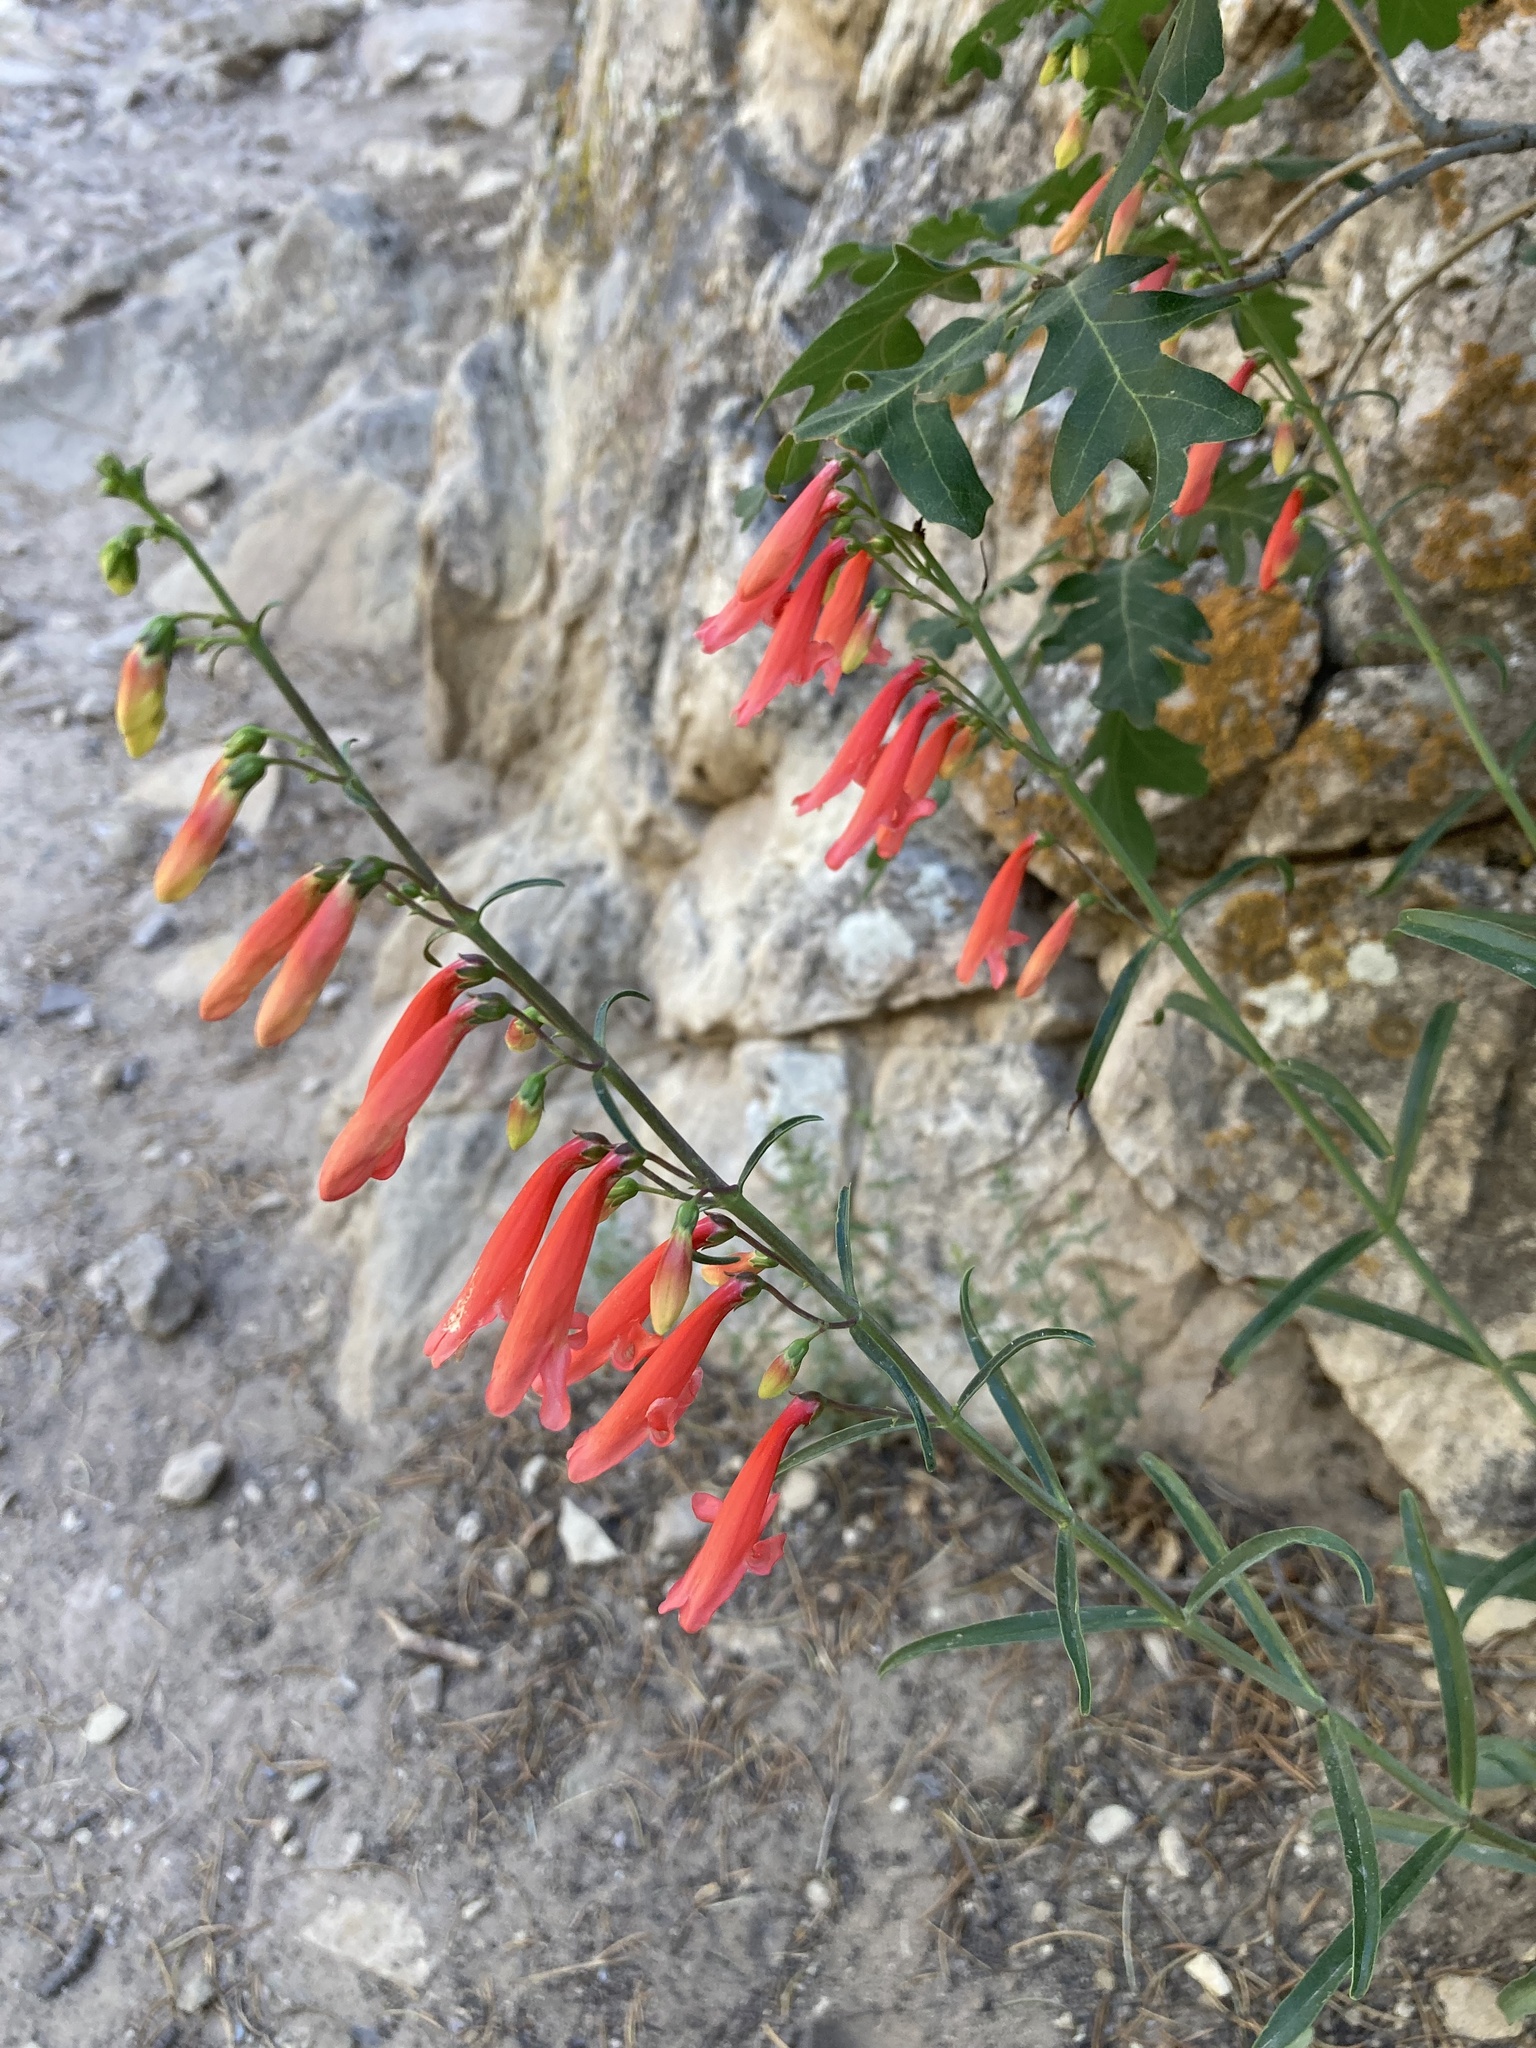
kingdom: Plantae
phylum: Tracheophyta
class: Magnoliopsida
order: Lamiales
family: Plantaginaceae
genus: Penstemon
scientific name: Penstemon barbatus
